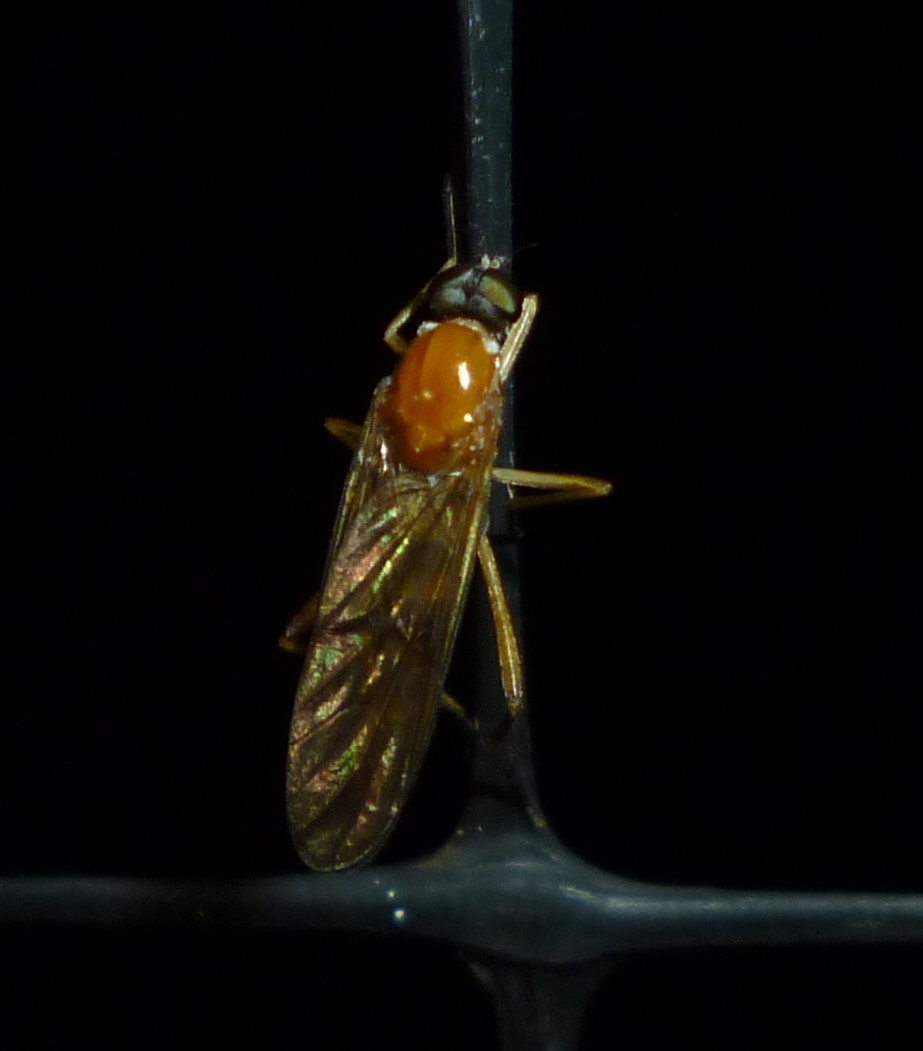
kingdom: Animalia
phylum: Arthropoda
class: Insecta
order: Diptera
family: Xylophagidae
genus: Dialysis
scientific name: Dialysis elongata
